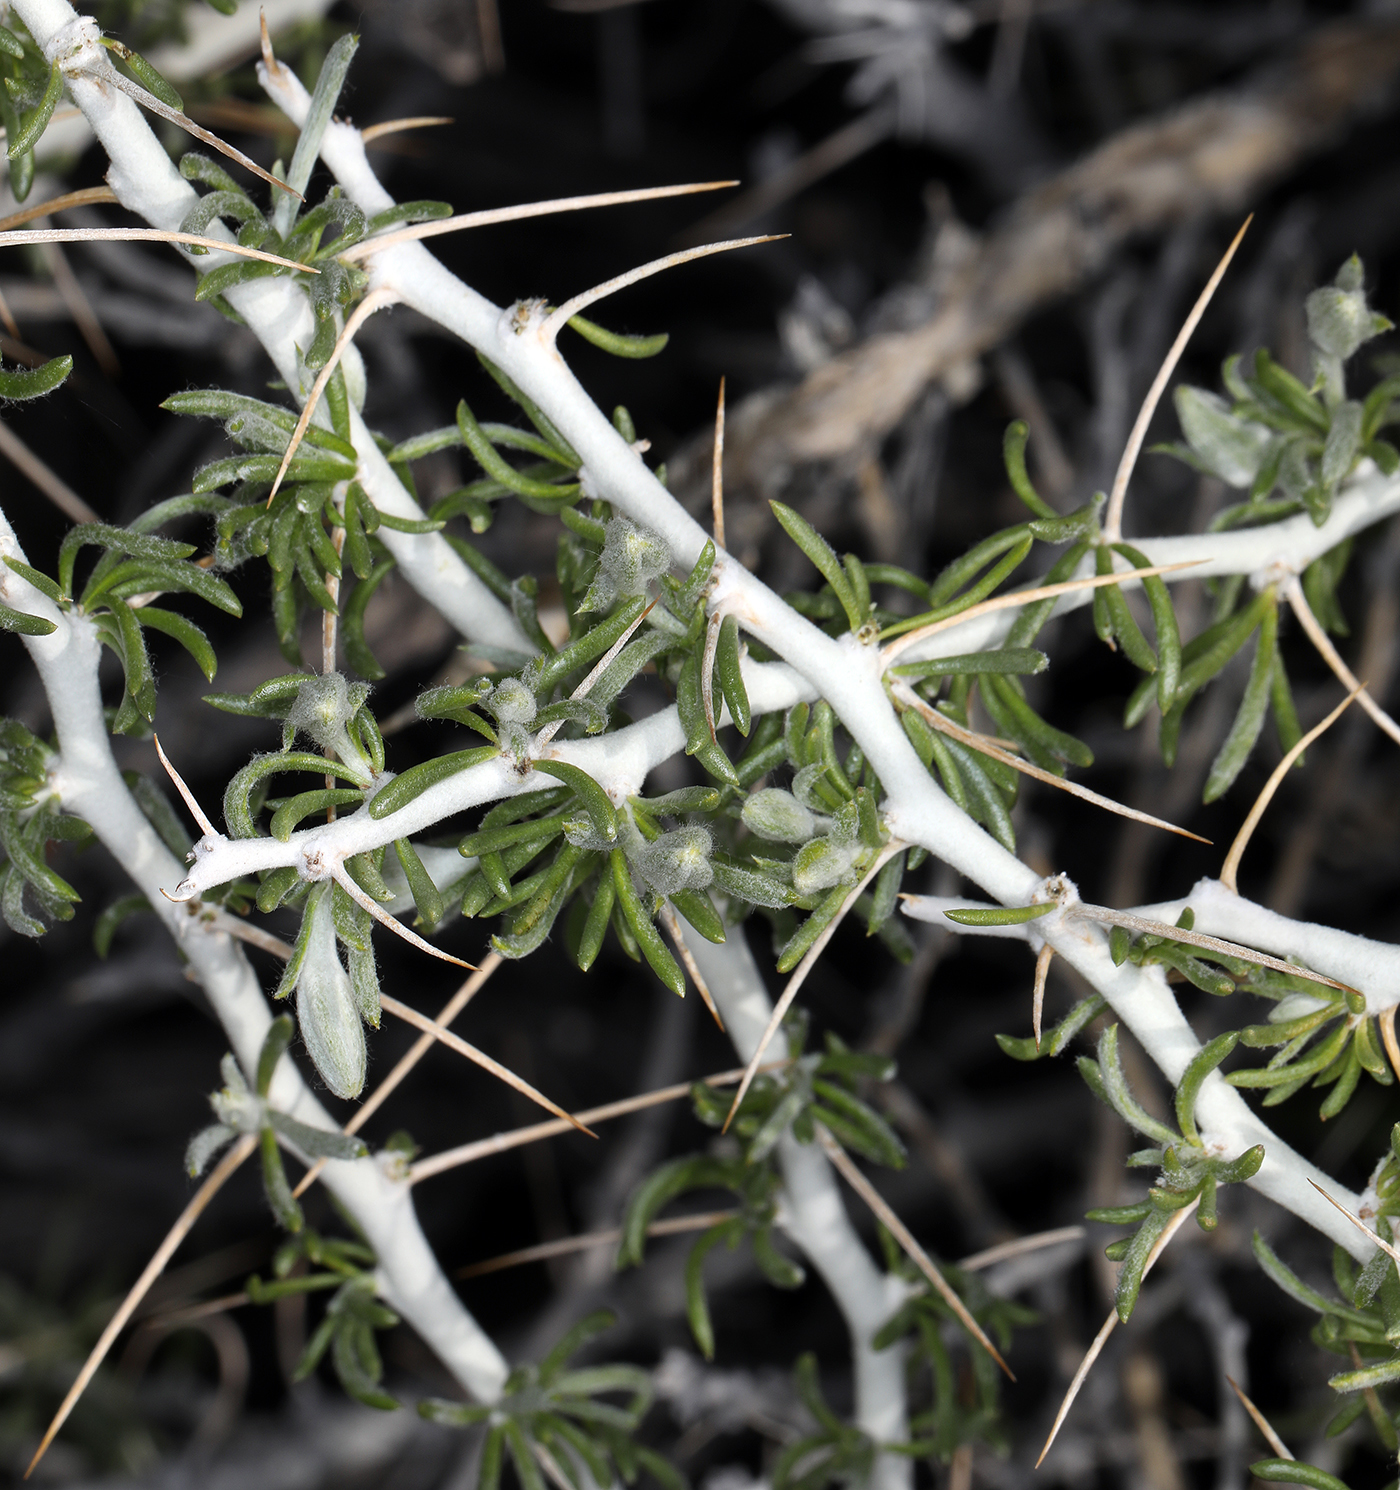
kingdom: Plantae
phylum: Tracheophyta
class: Magnoliopsida
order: Asterales
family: Asteraceae
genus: Tetradymia
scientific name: Tetradymia axillaris
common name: Long-spine horsebrush
